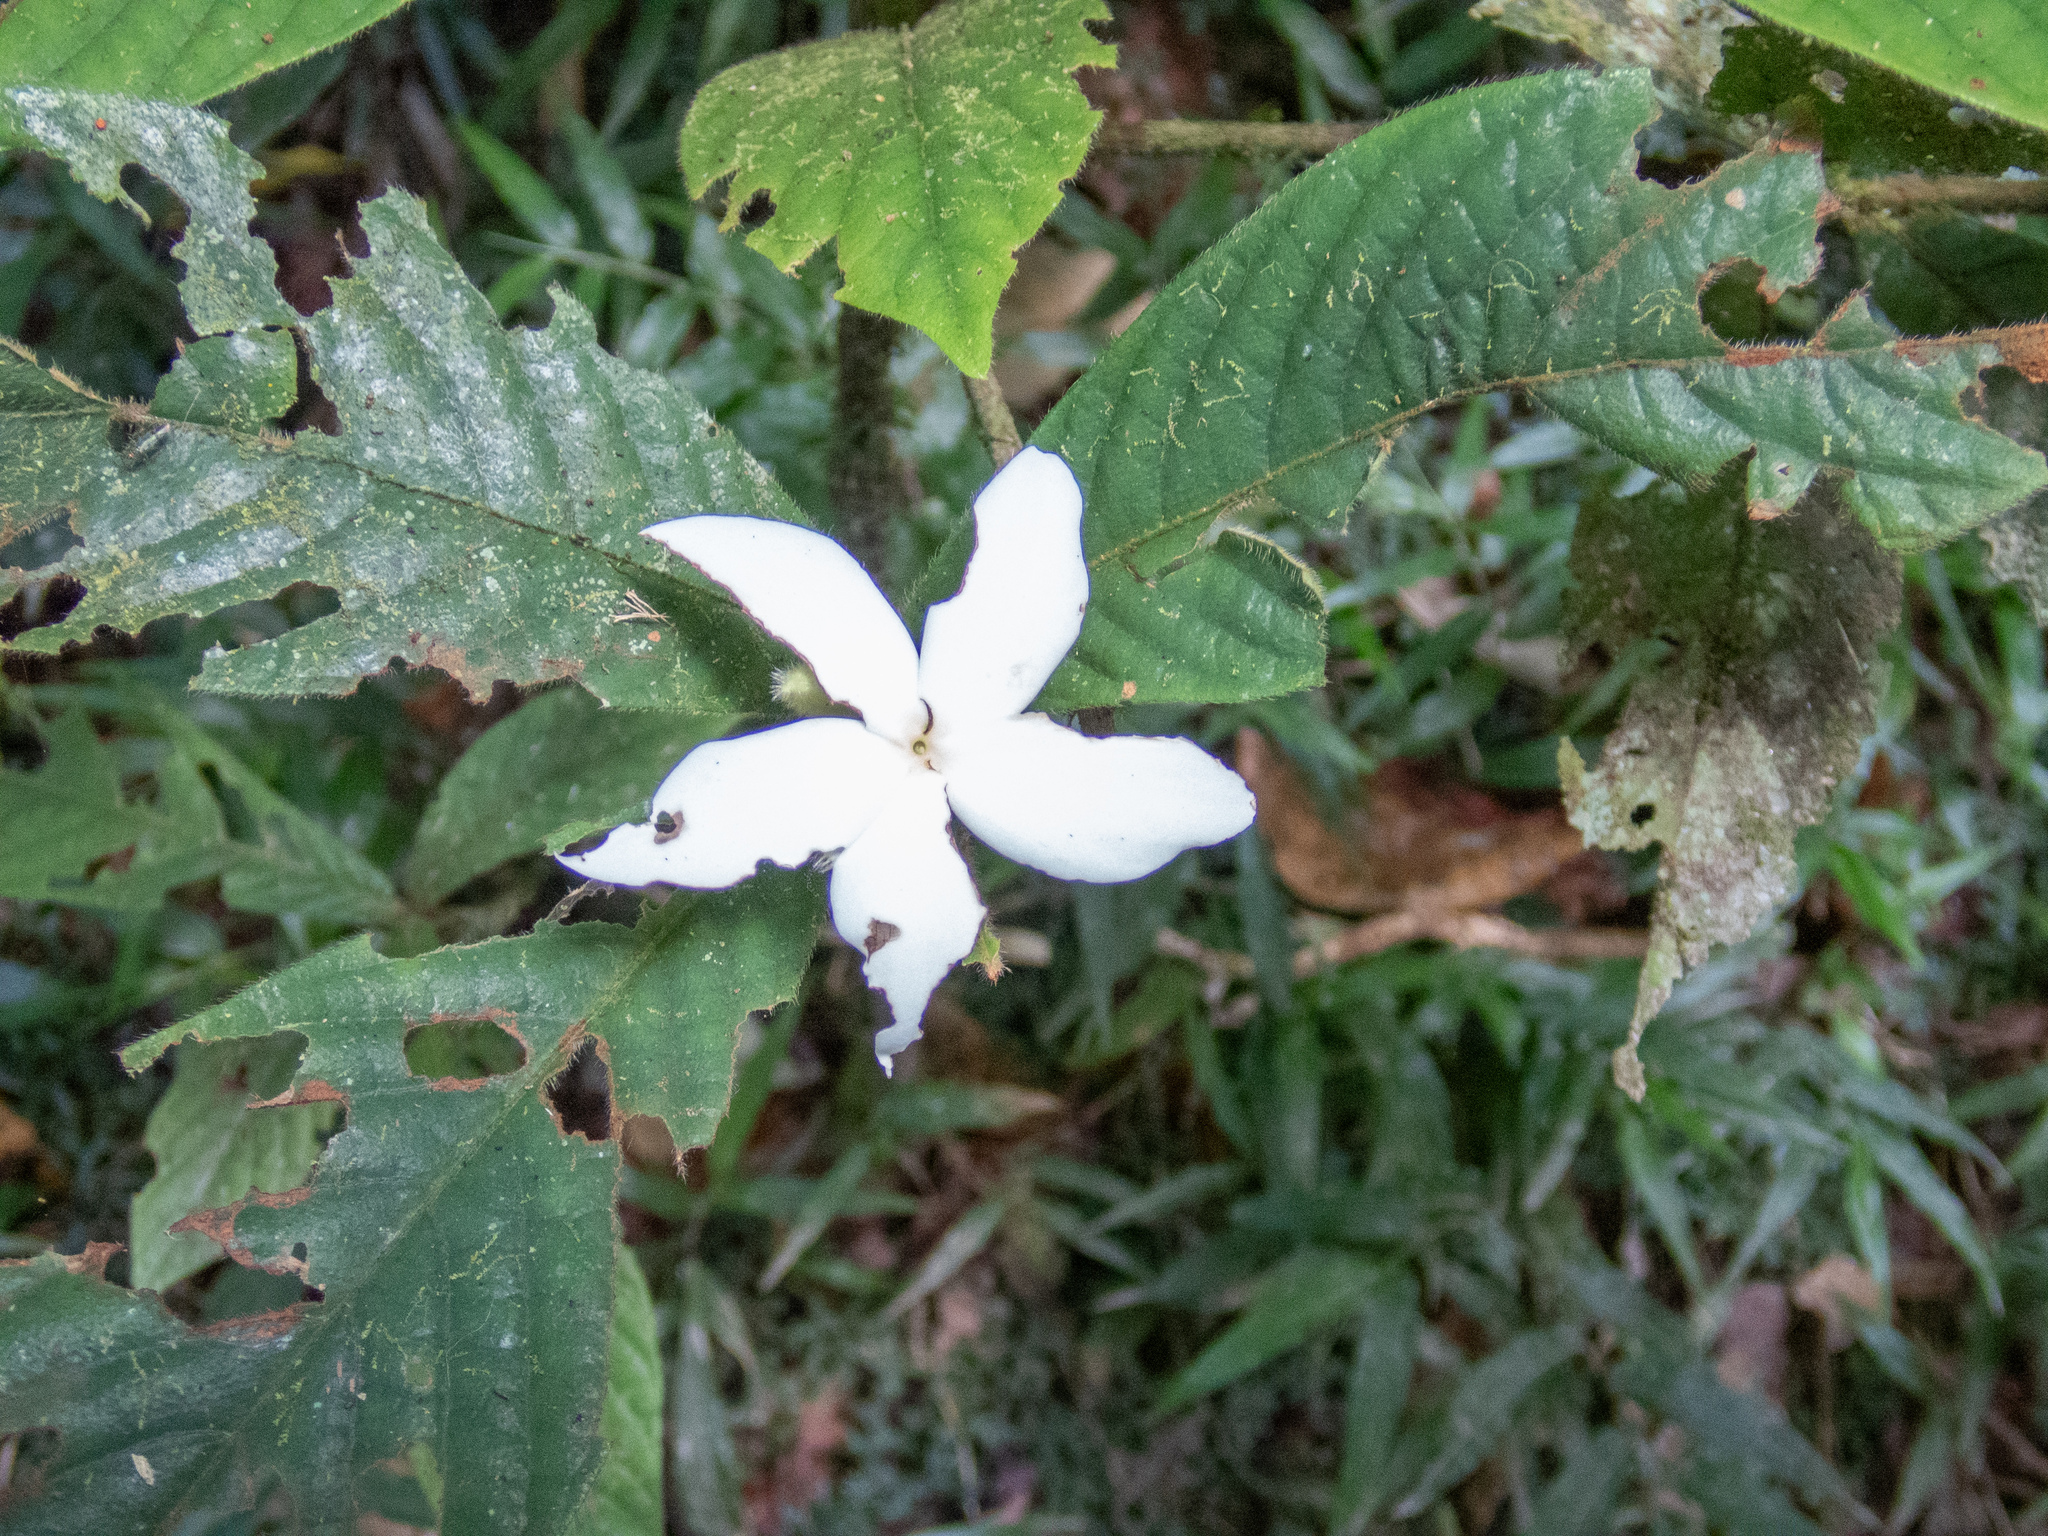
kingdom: Plantae
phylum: Tracheophyta
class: Magnoliopsida
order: Gentianales
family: Rubiaceae
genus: Atractocarpus
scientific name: Atractocarpus hirtus
